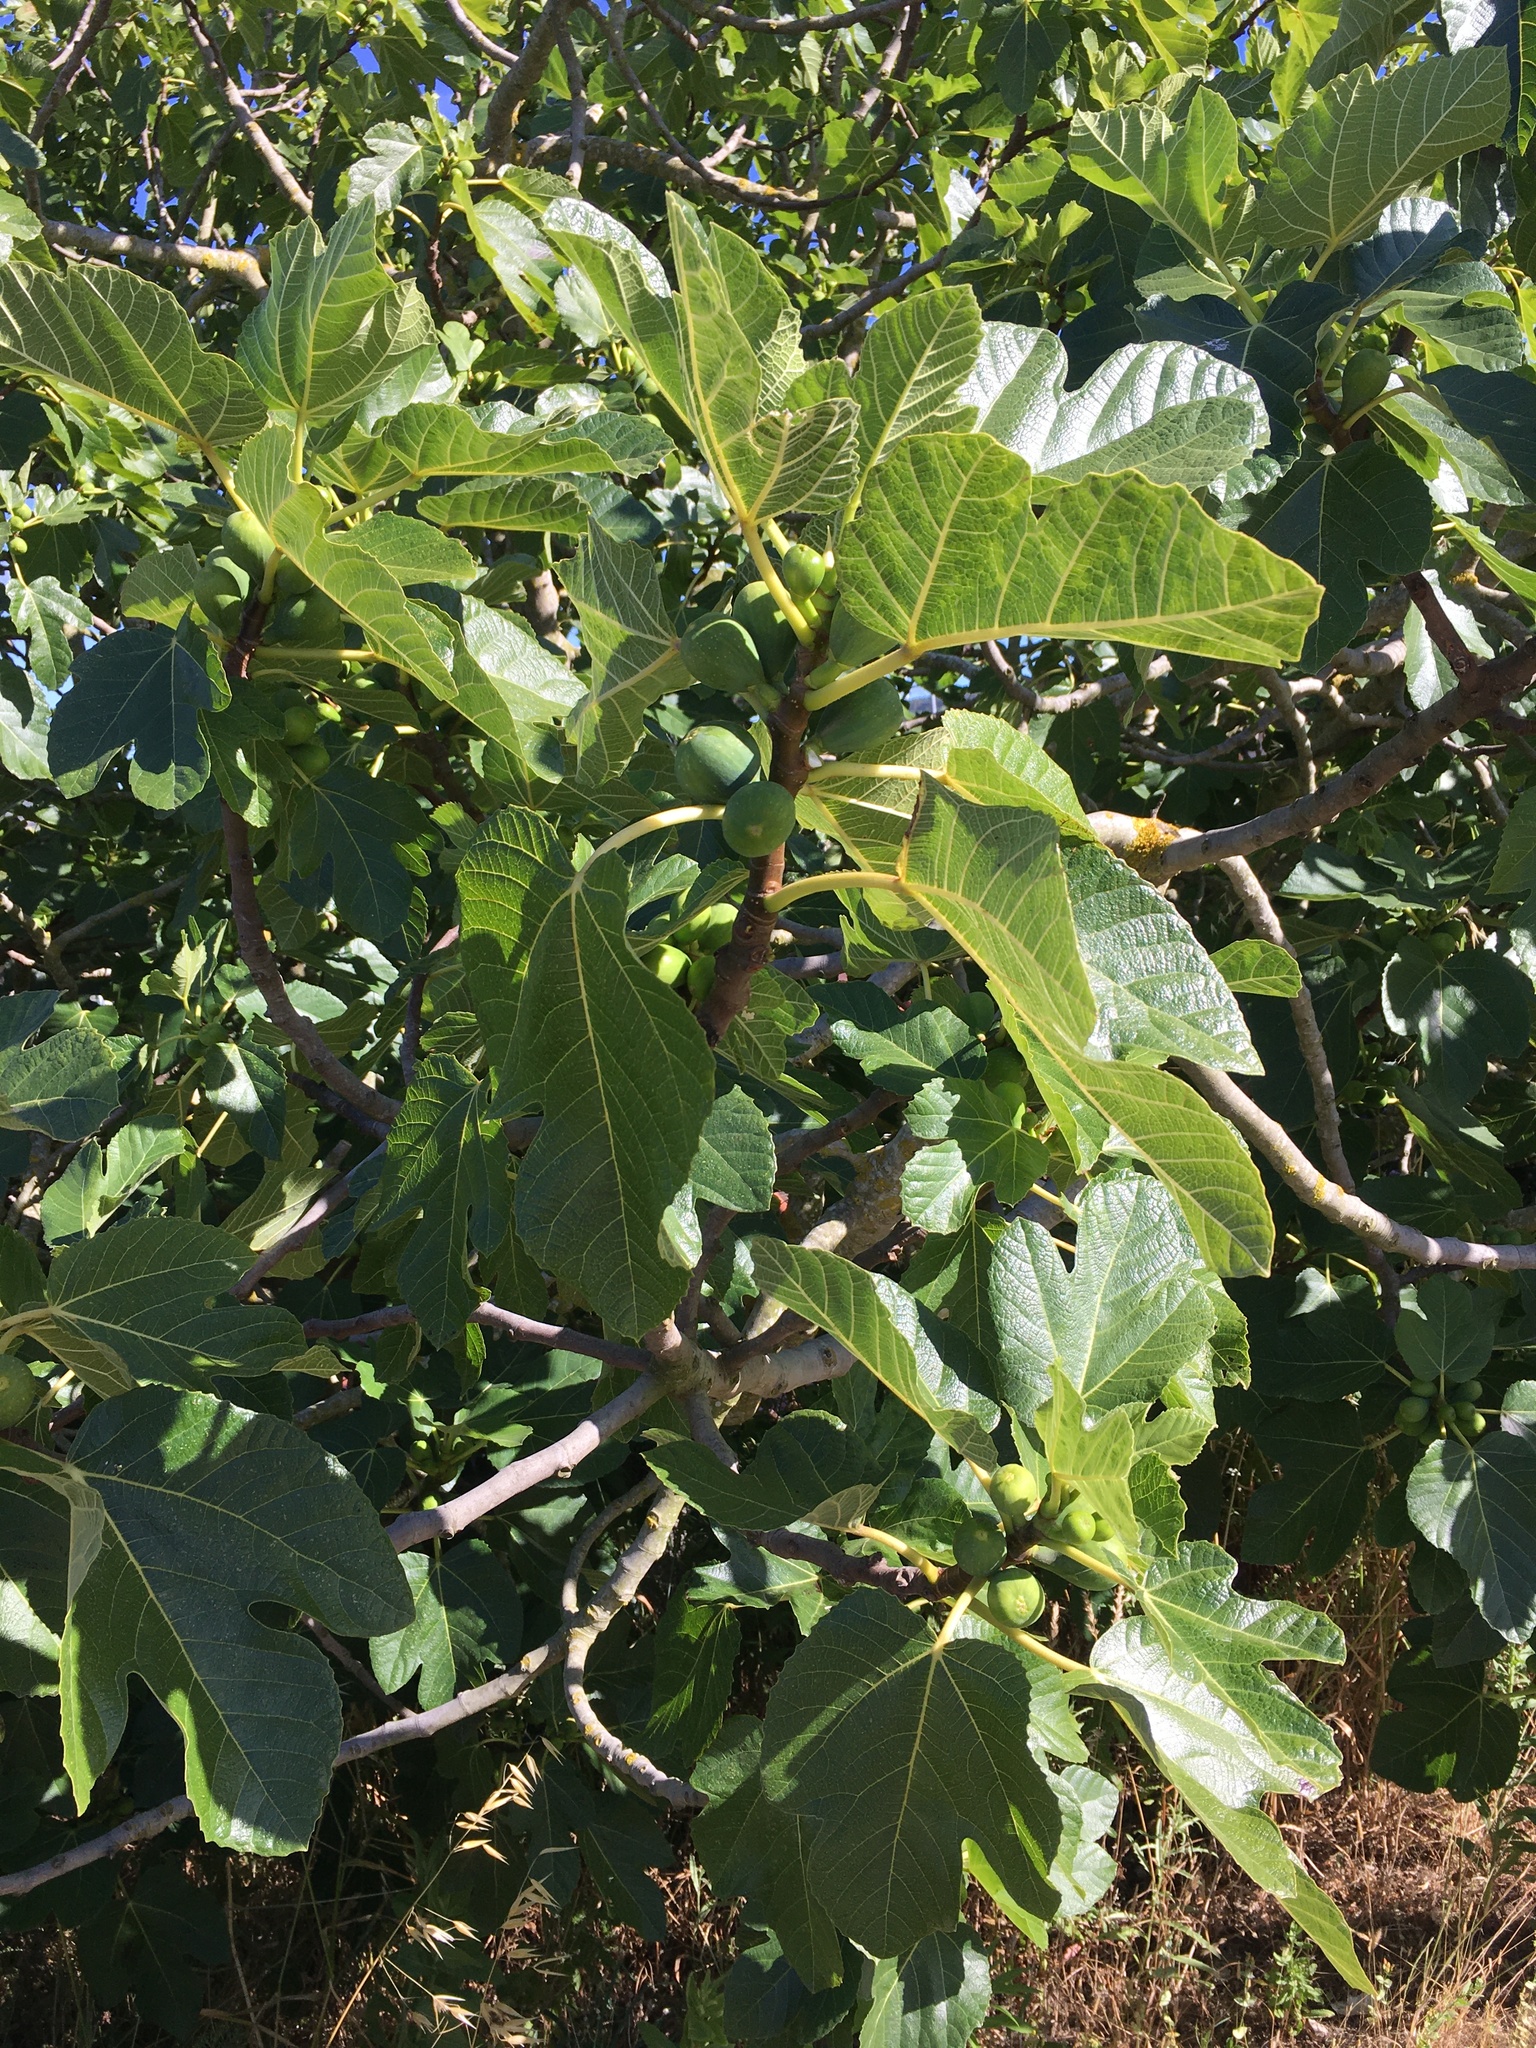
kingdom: Plantae
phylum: Tracheophyta
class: Magnoliopsida
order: Rosales
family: Moraceae
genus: Ficus
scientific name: Ficus carica
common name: Fig
